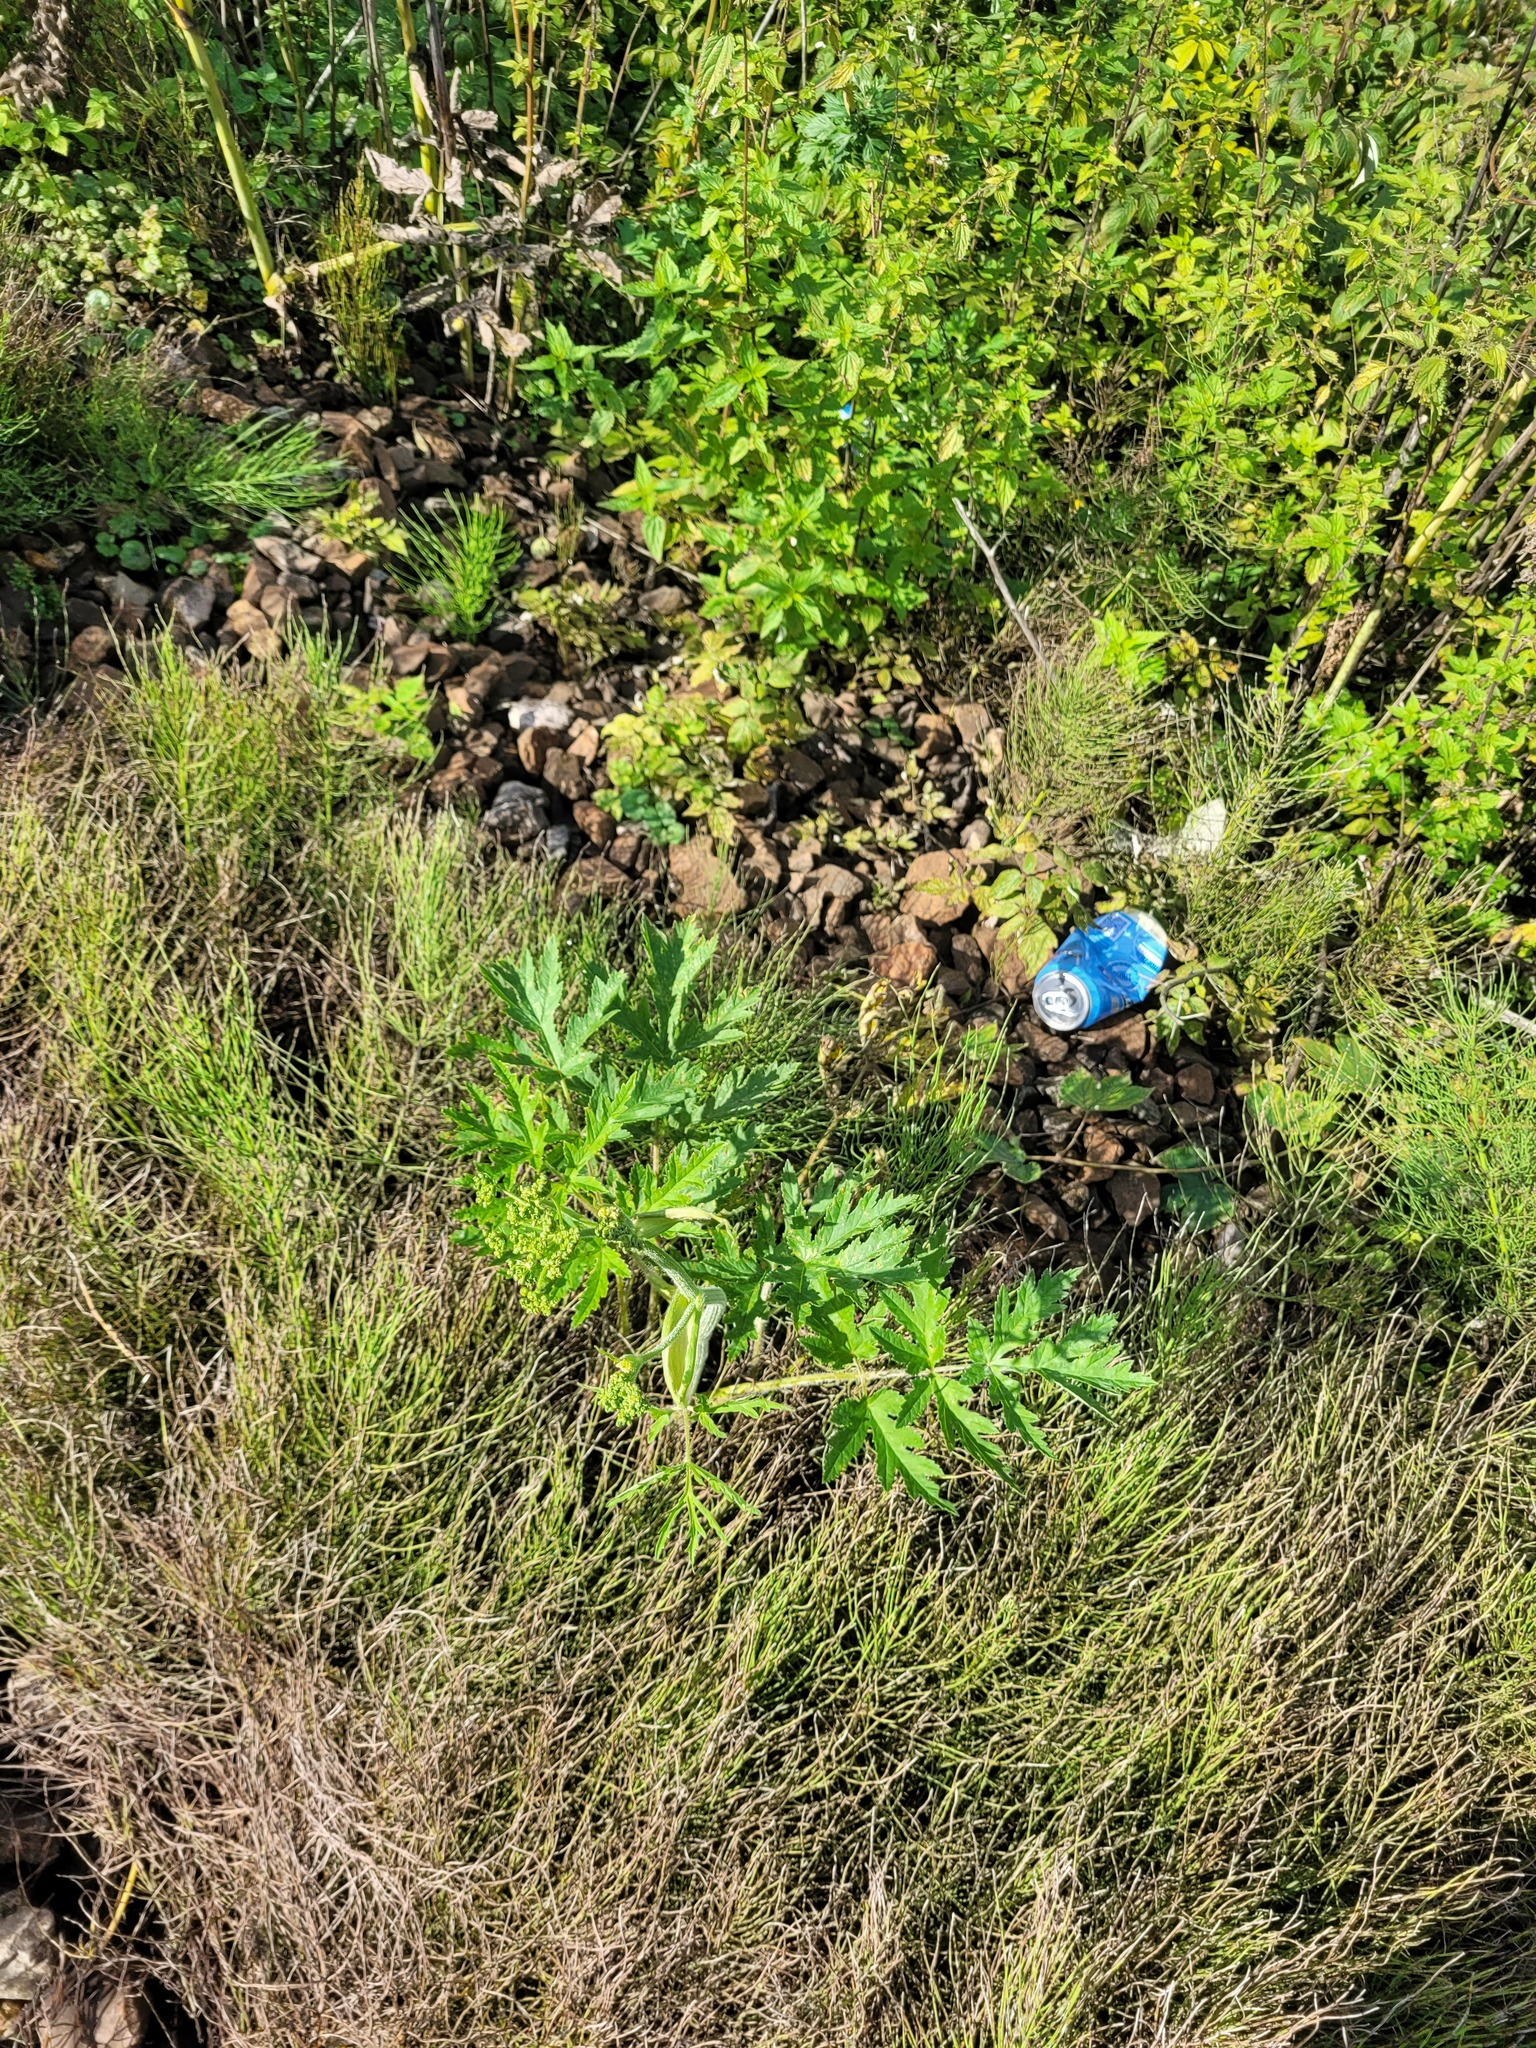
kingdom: Plantae
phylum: Tracheophyta
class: Magnoliopsida
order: Apiales
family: Apiaceae
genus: Heracleum
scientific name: Heracleum sphondylium
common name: Hogweed
